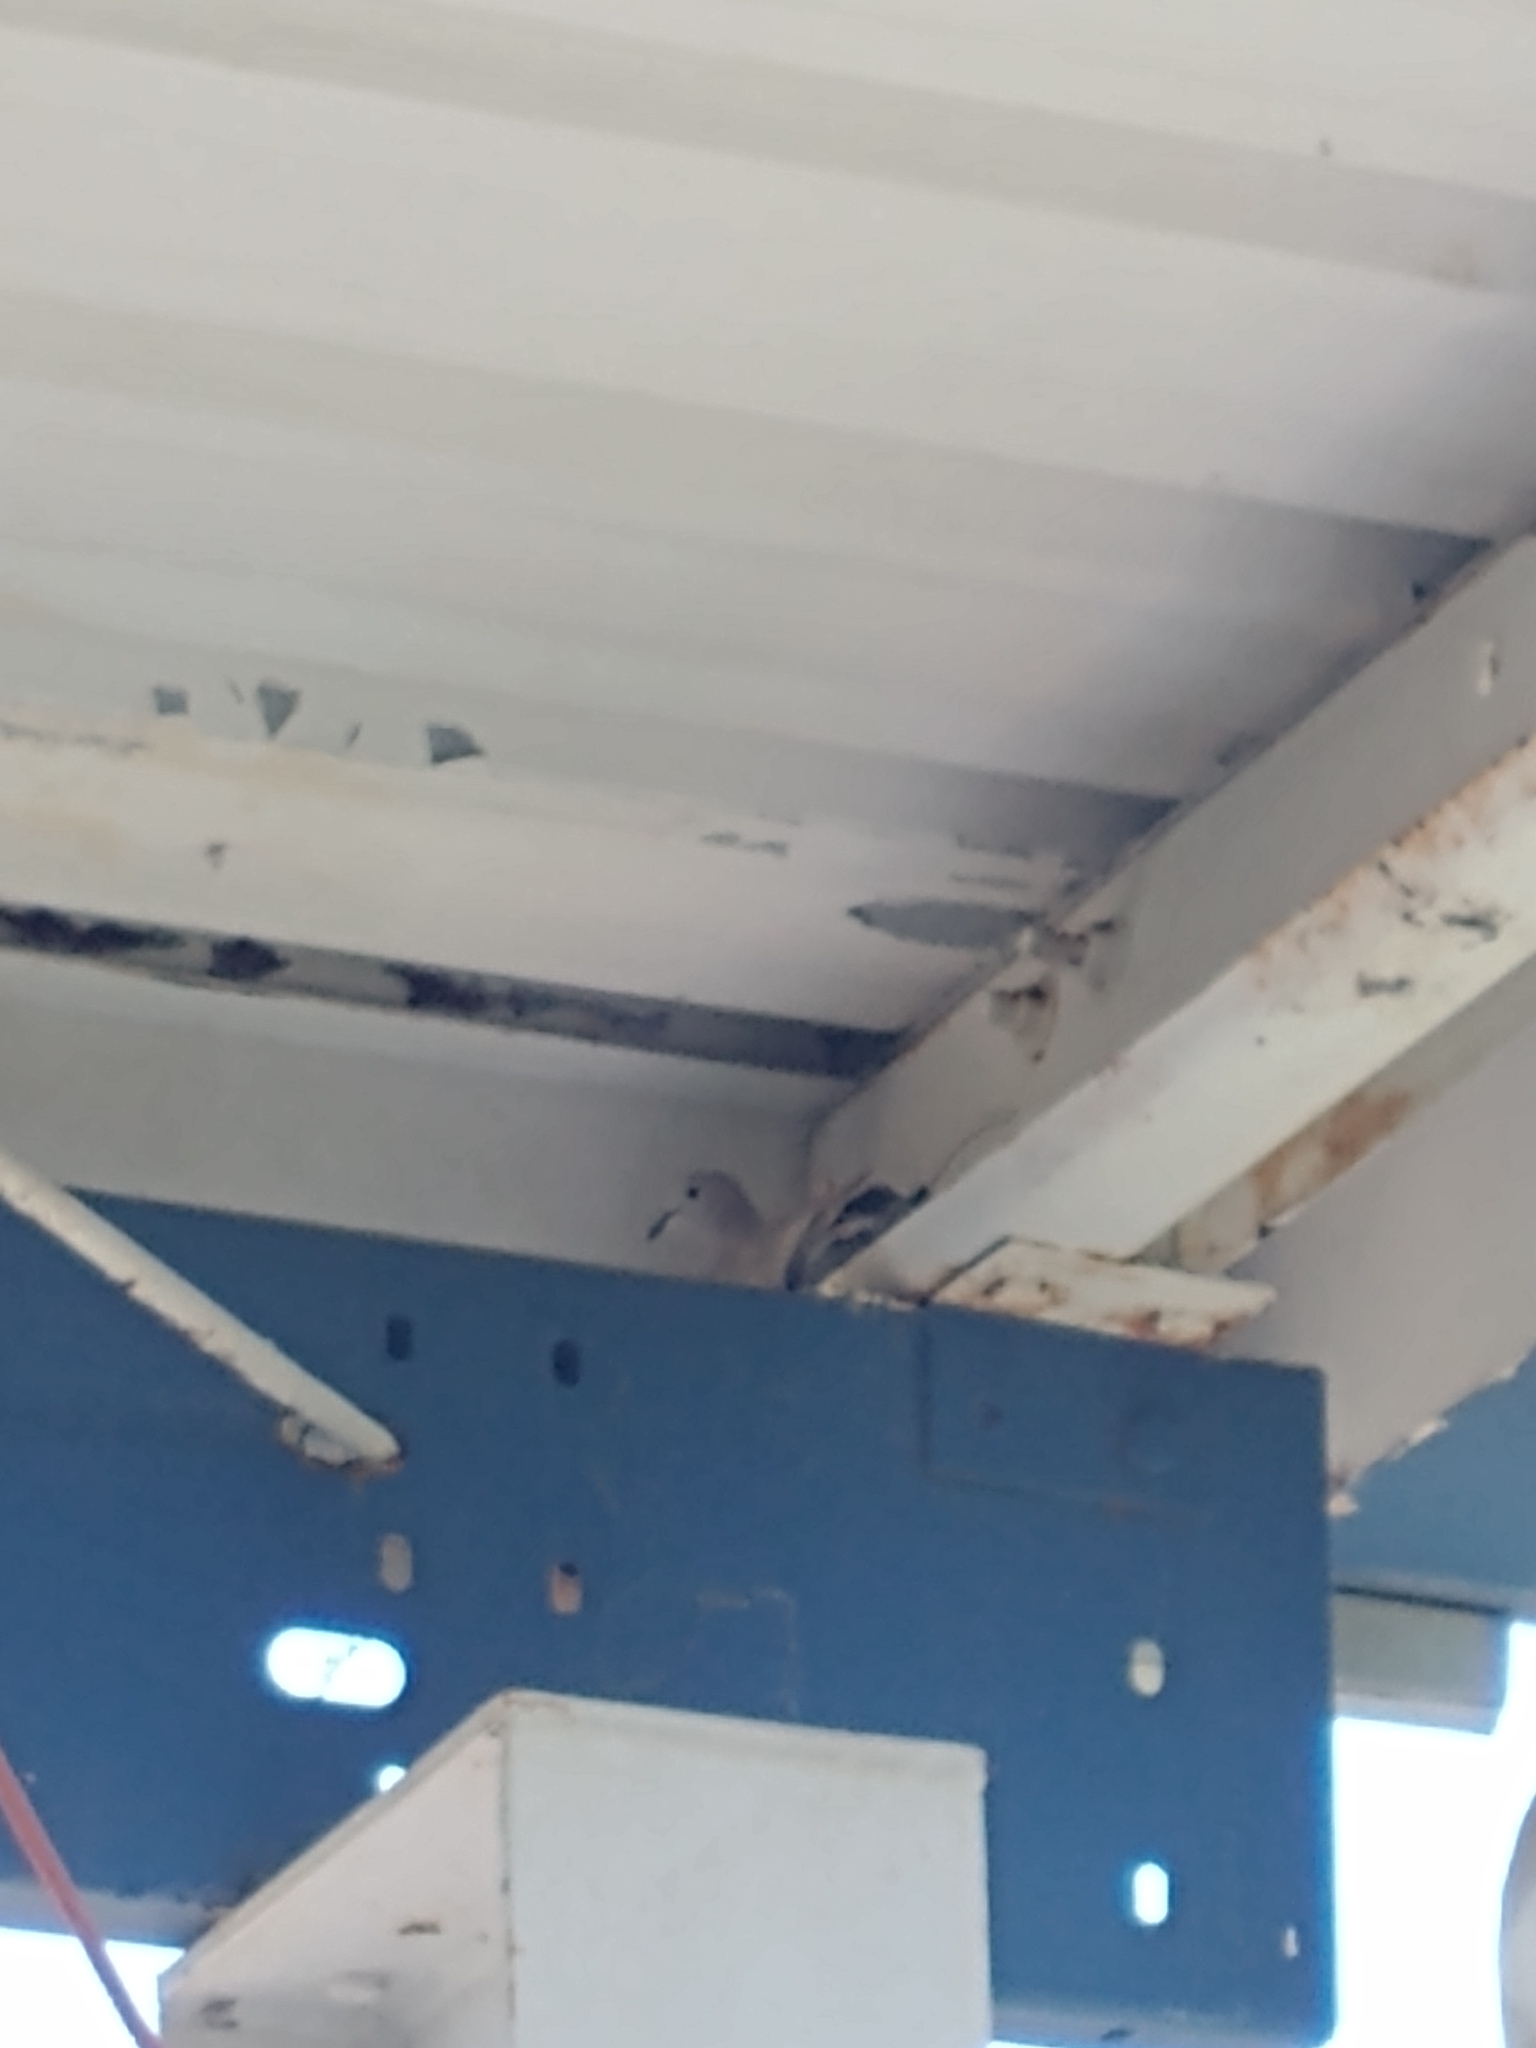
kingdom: Animalia
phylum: Chordata
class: Aves
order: Columbiformes
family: Columbidae
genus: Zenaida
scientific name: Zenaida macroura
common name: Mourning dove
